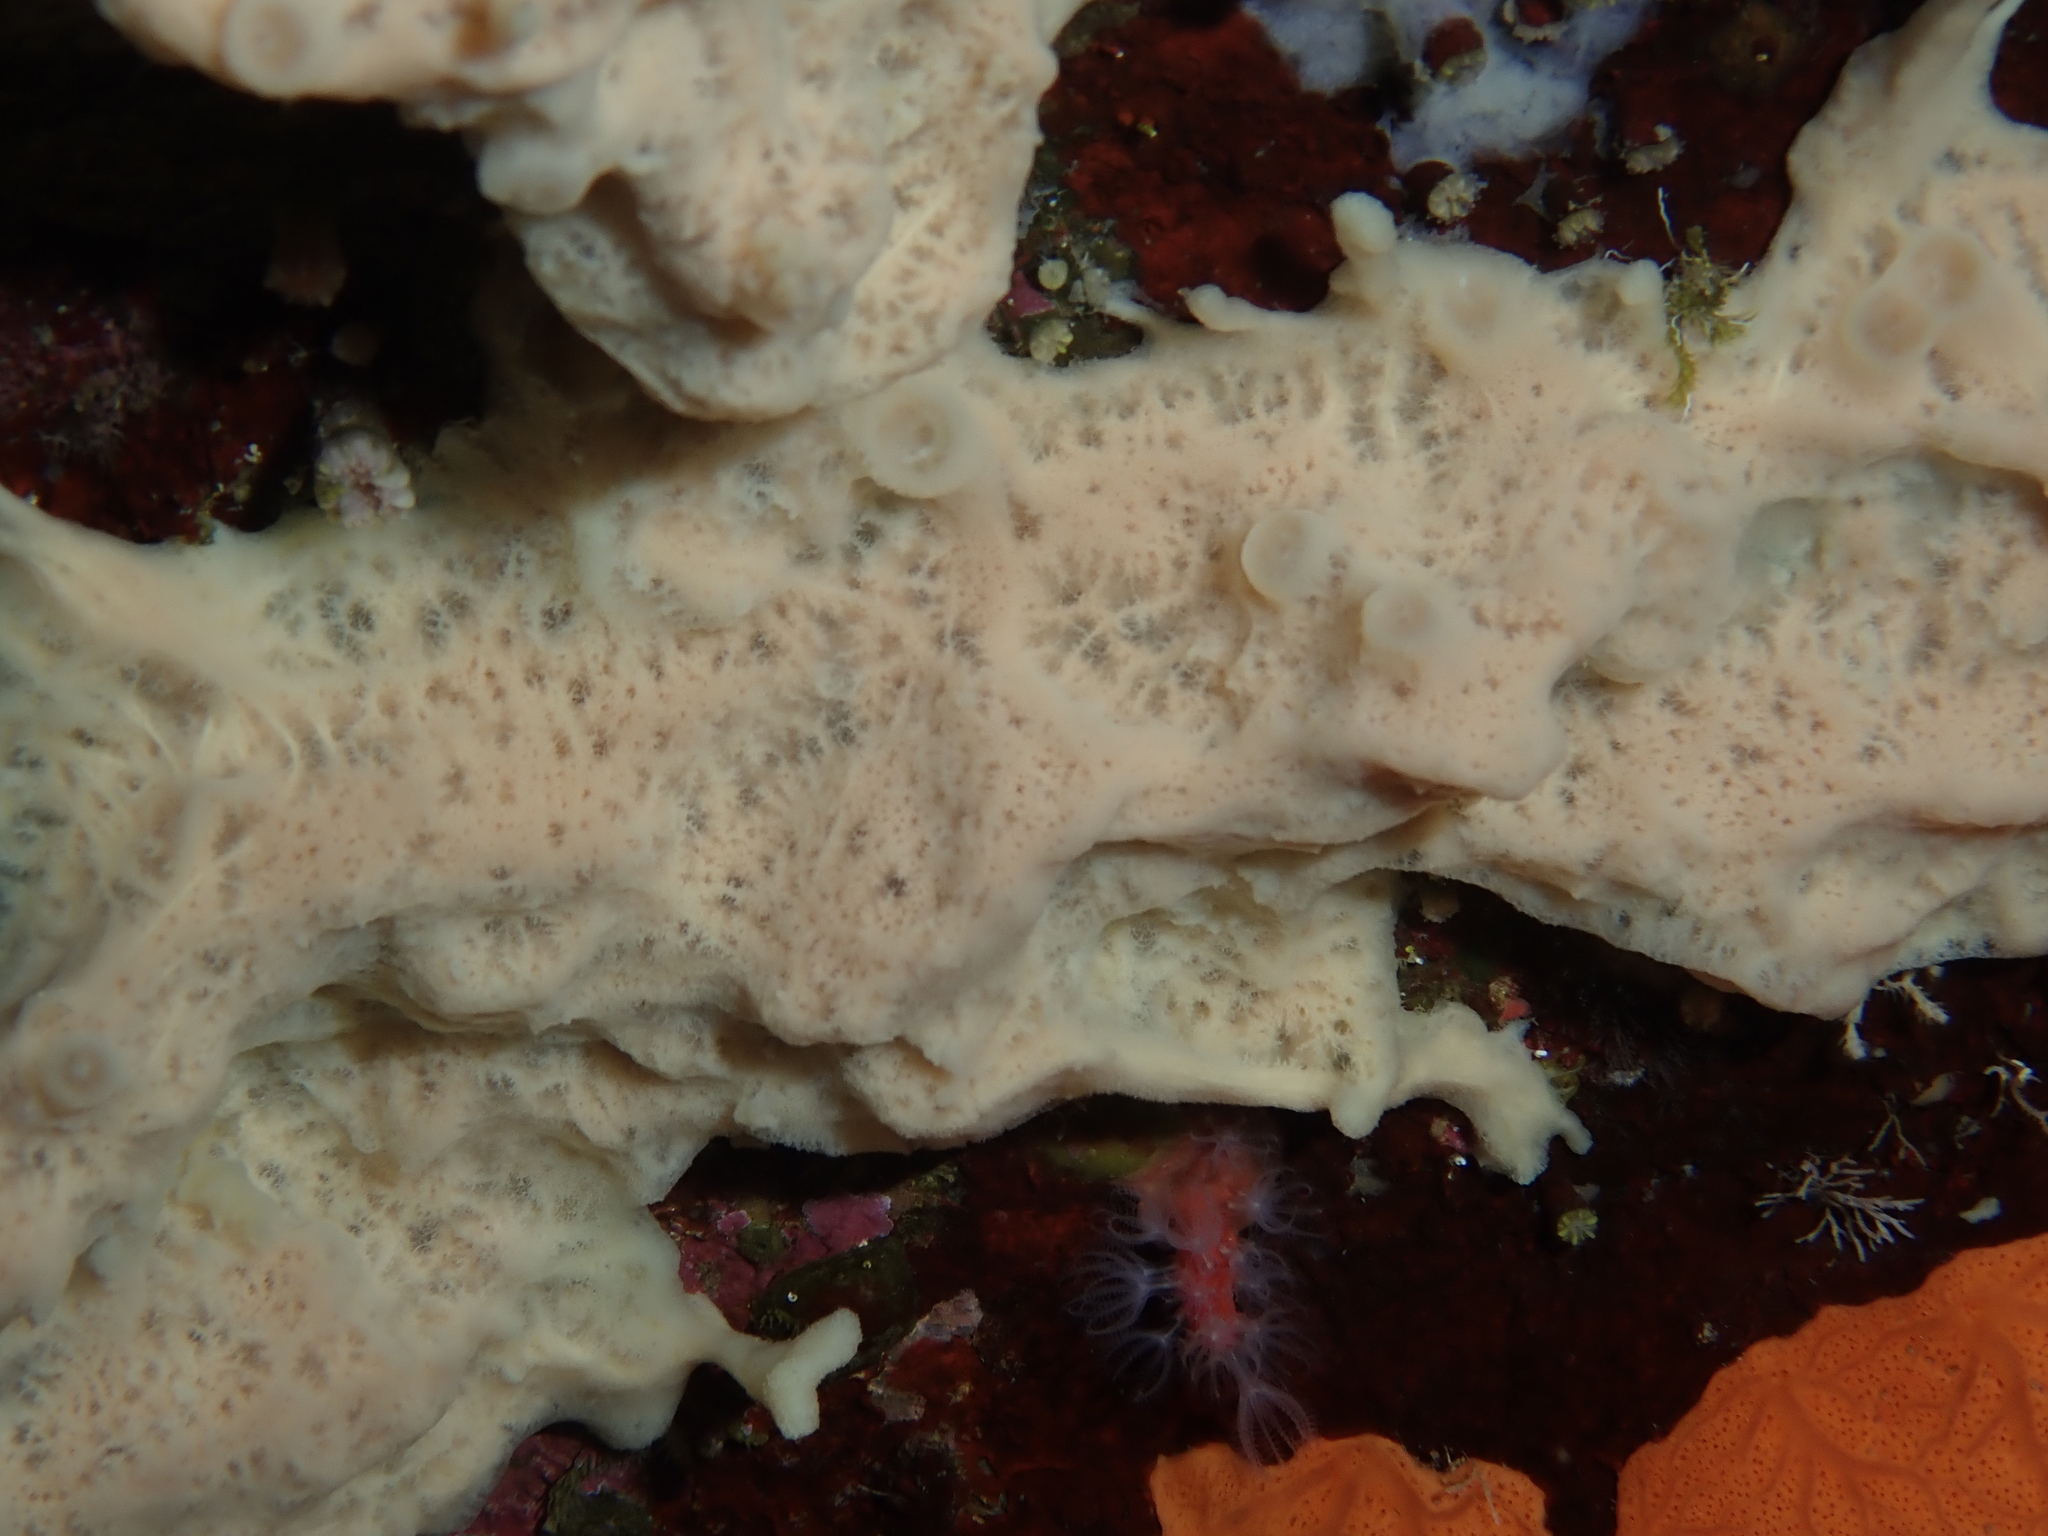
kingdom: Animalia
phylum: Porifera
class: Demospongiae
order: Haplosclerida
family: Chalinidae
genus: Haliclona
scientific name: Haliclona mucosa
